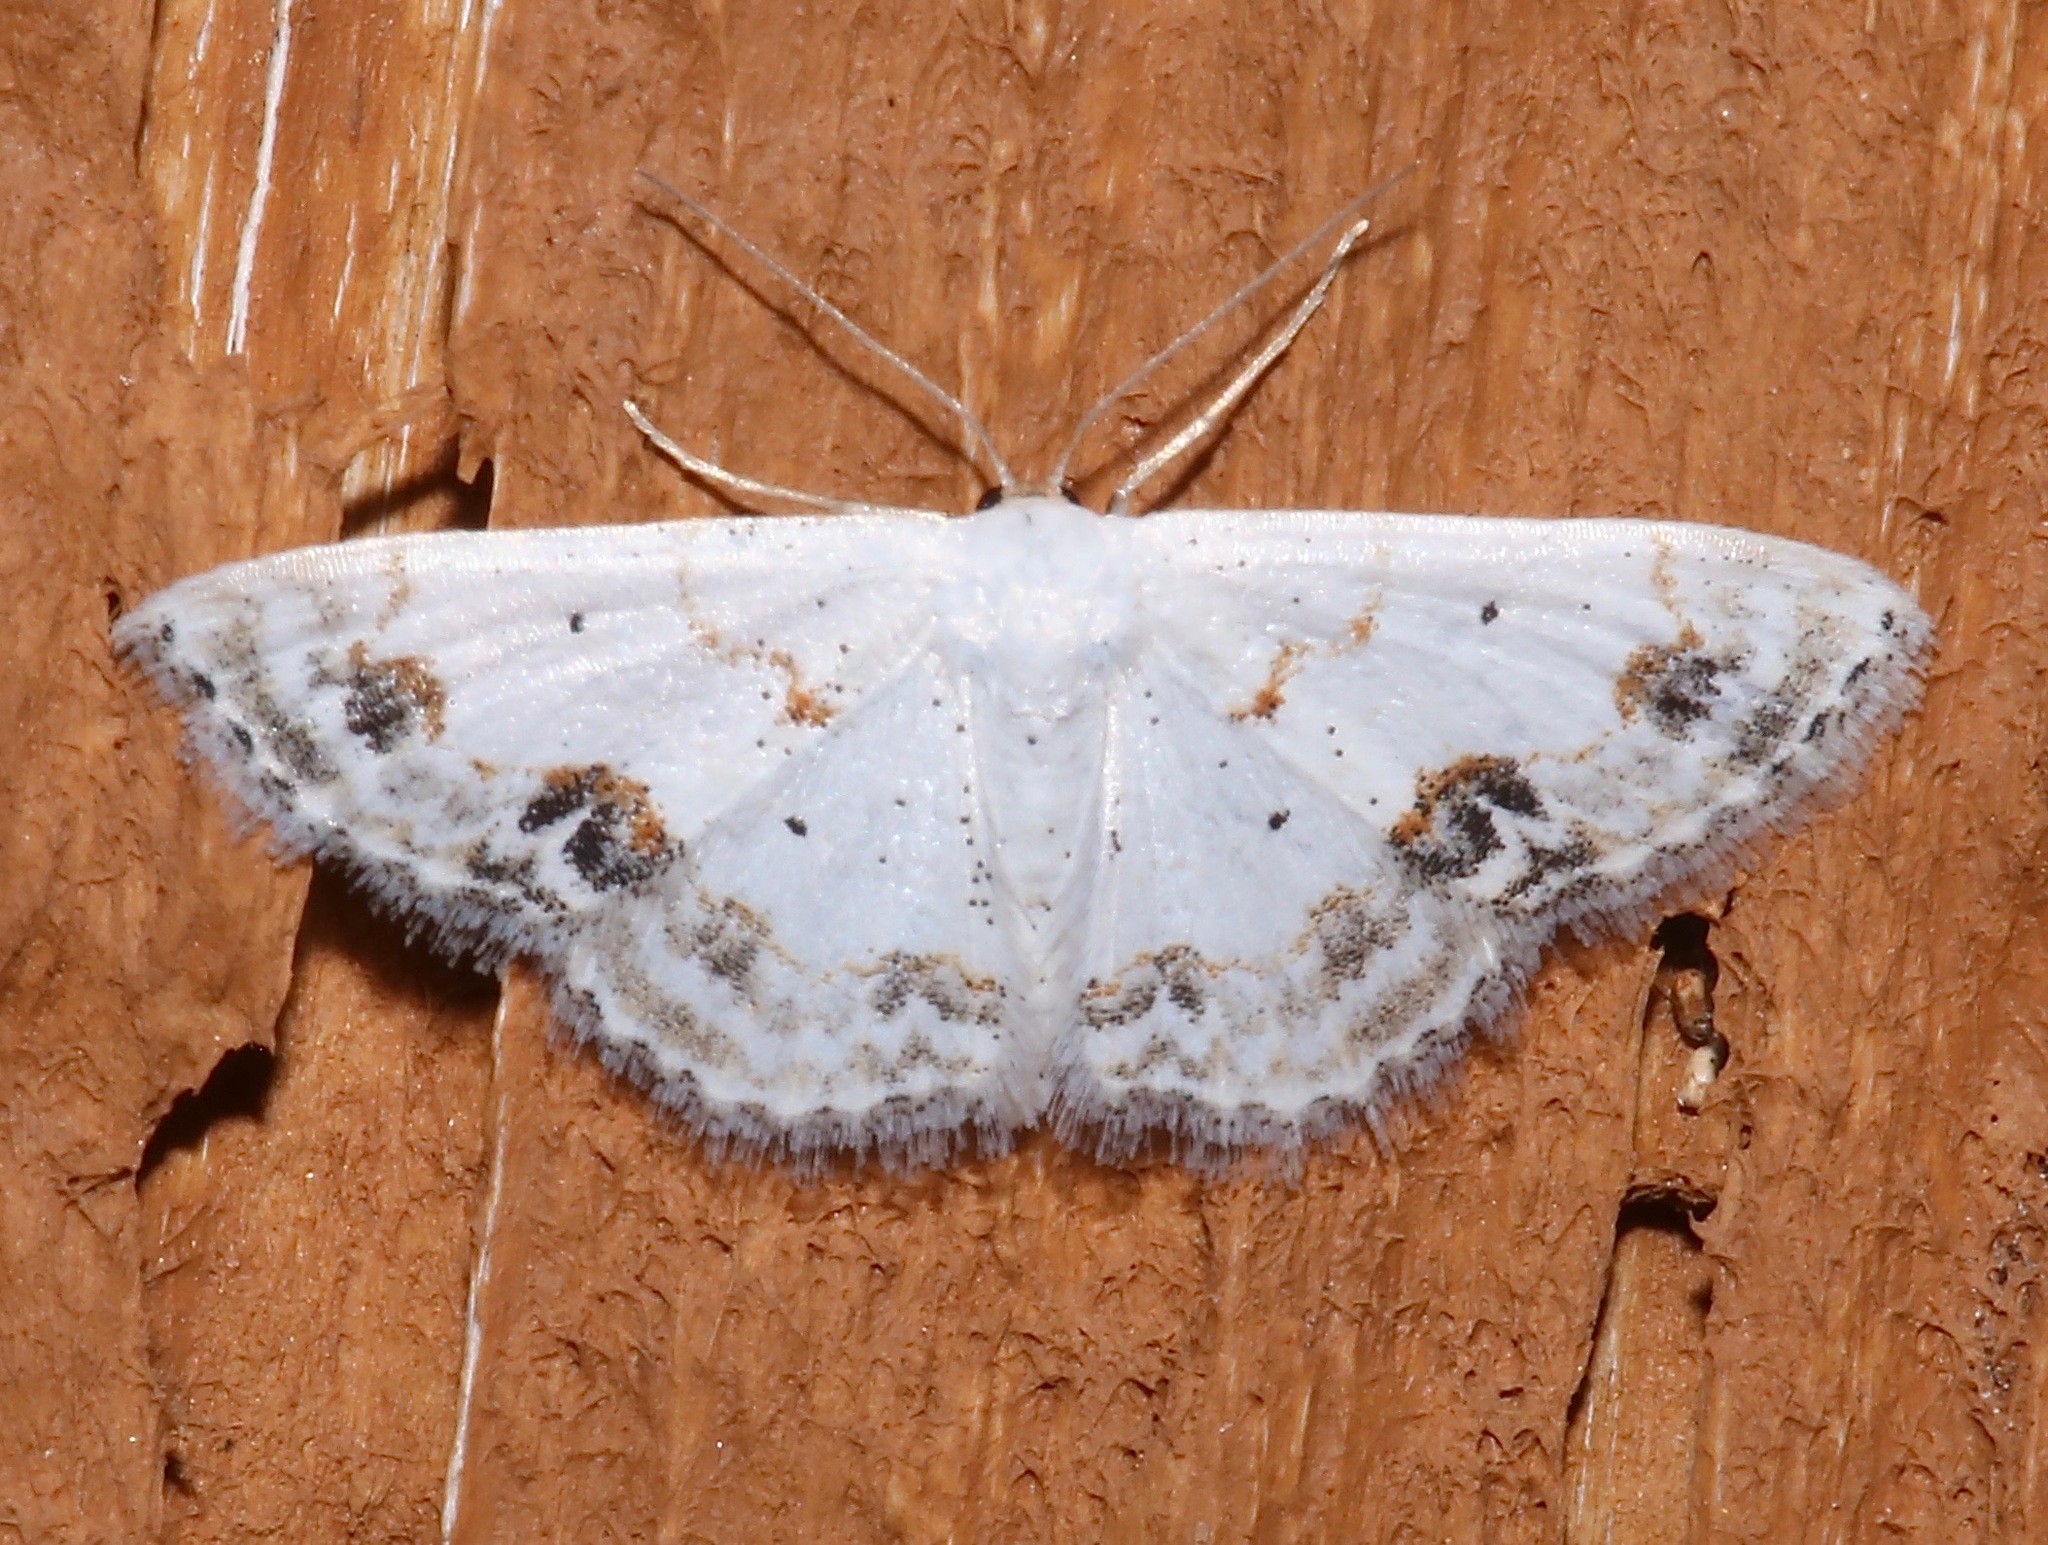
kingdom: Animalia
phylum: Arthropoda
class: Insecta
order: Lepidoptera
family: Geometridae
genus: Scopula
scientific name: Scopula lautaria
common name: Small frosted wave moth
